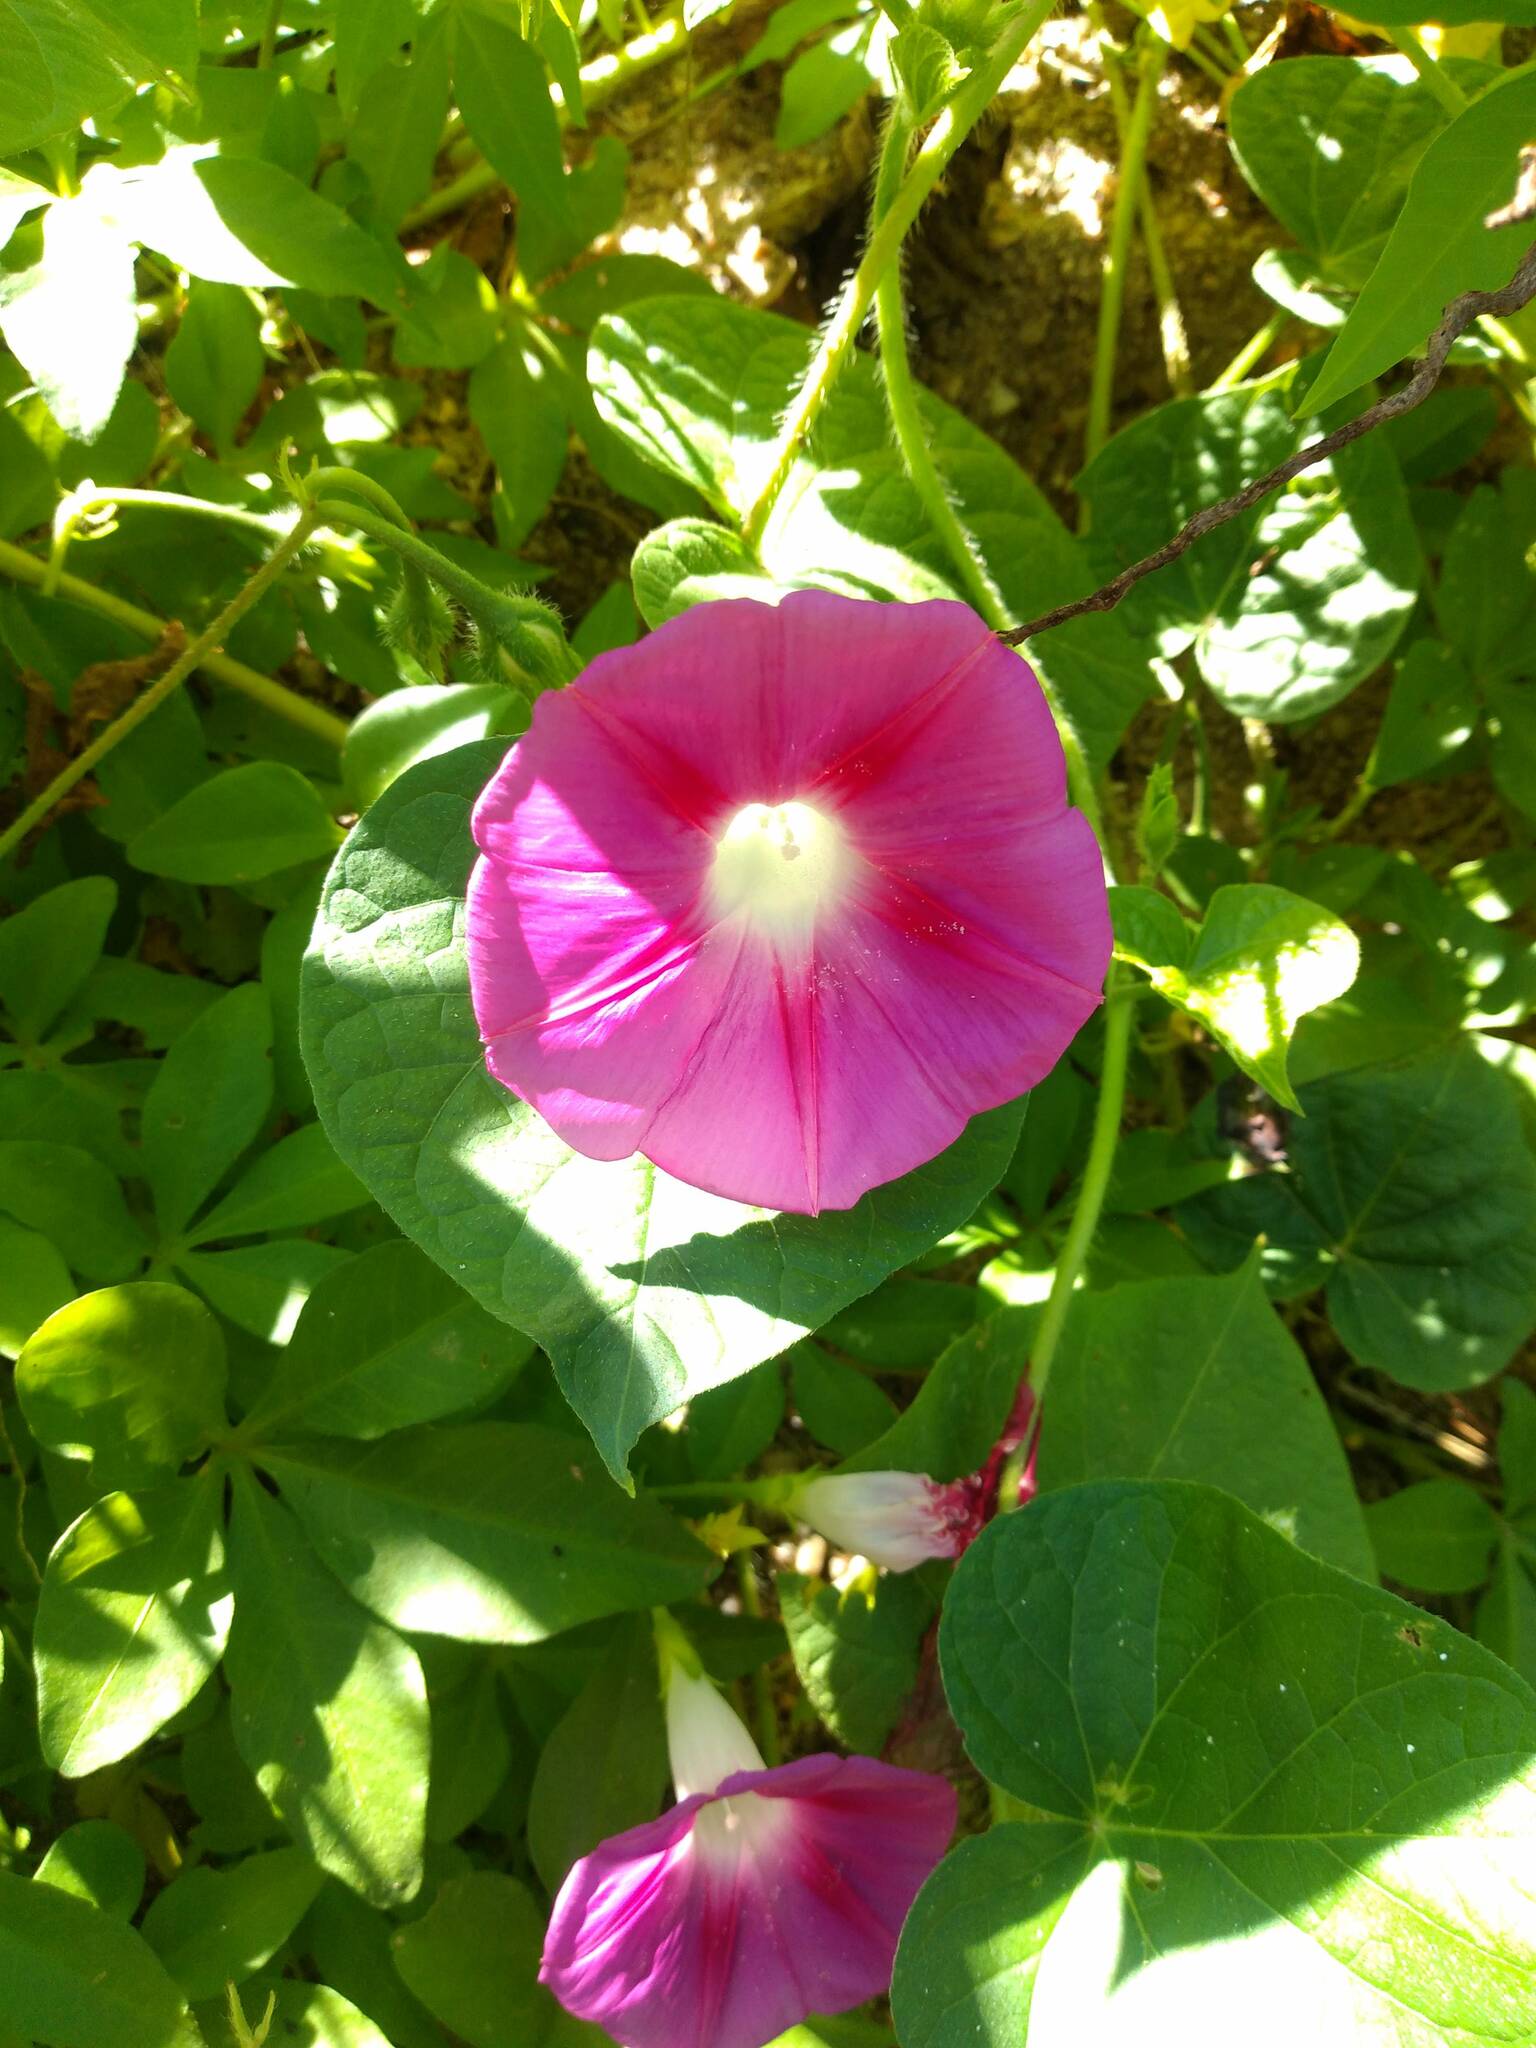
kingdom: Plantae
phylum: Tracheophyta
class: Magnoliopsida
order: Solanales
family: Convolvulaceae
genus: Ipomoea
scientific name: Ipomoea purpurea
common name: Common morning-glory
